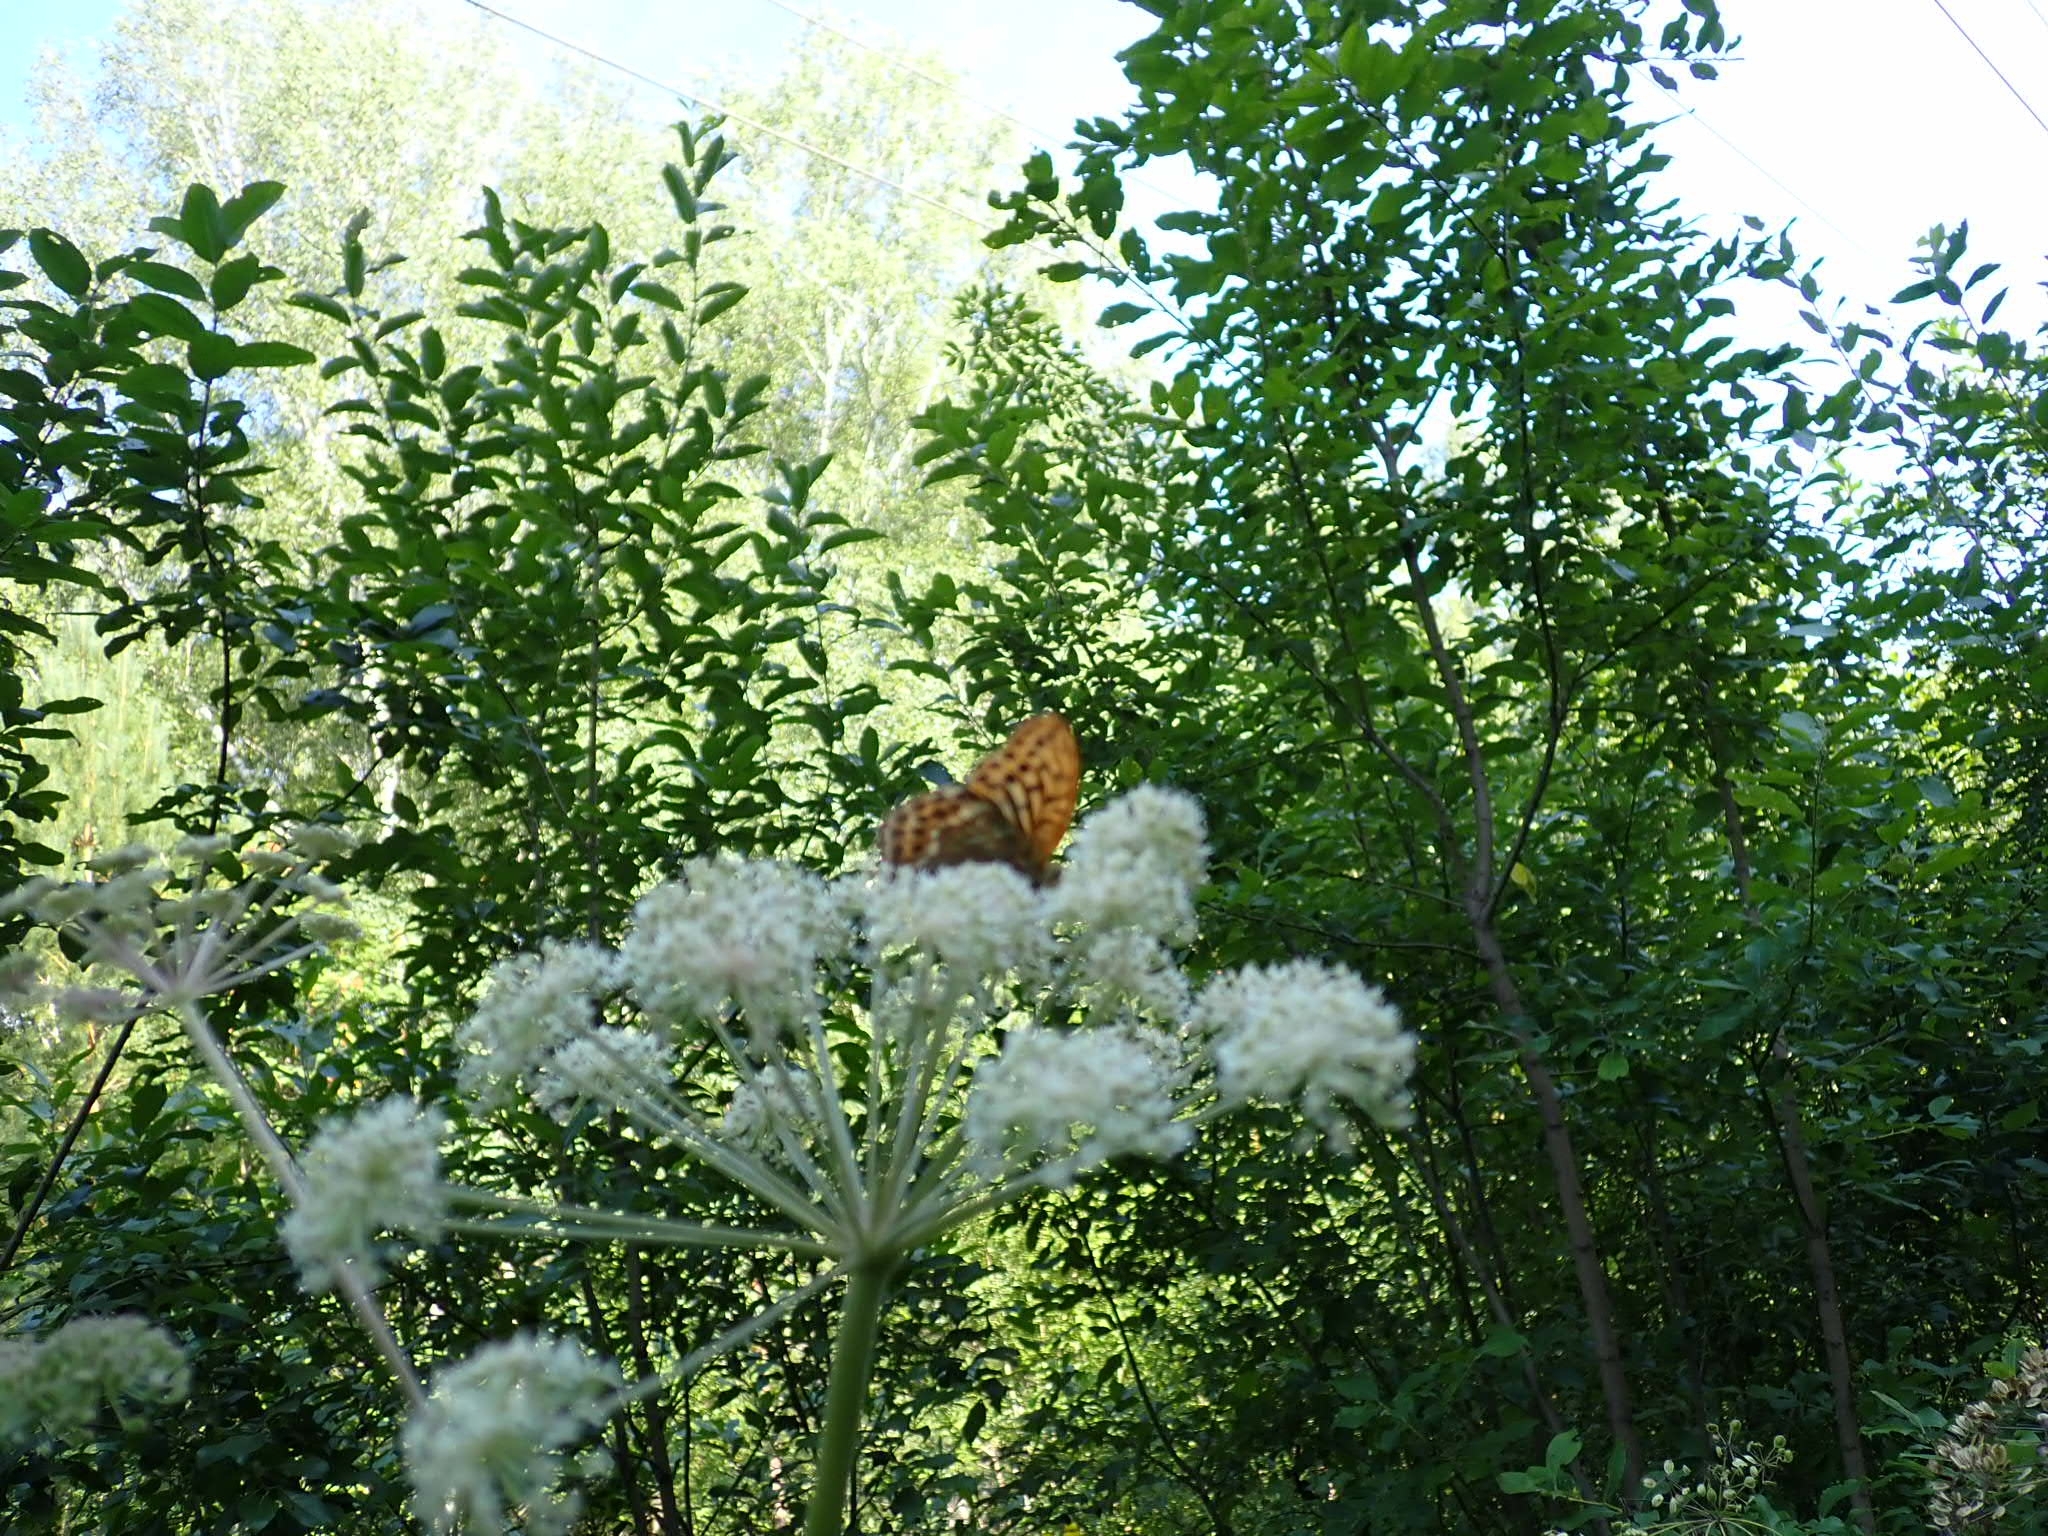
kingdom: Animalia
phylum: Arthropoda
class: Insecta
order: Lepidoptera
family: Nymphalidae
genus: Argynnis
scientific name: Argynnis paphia
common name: Silver-washed fritillary
